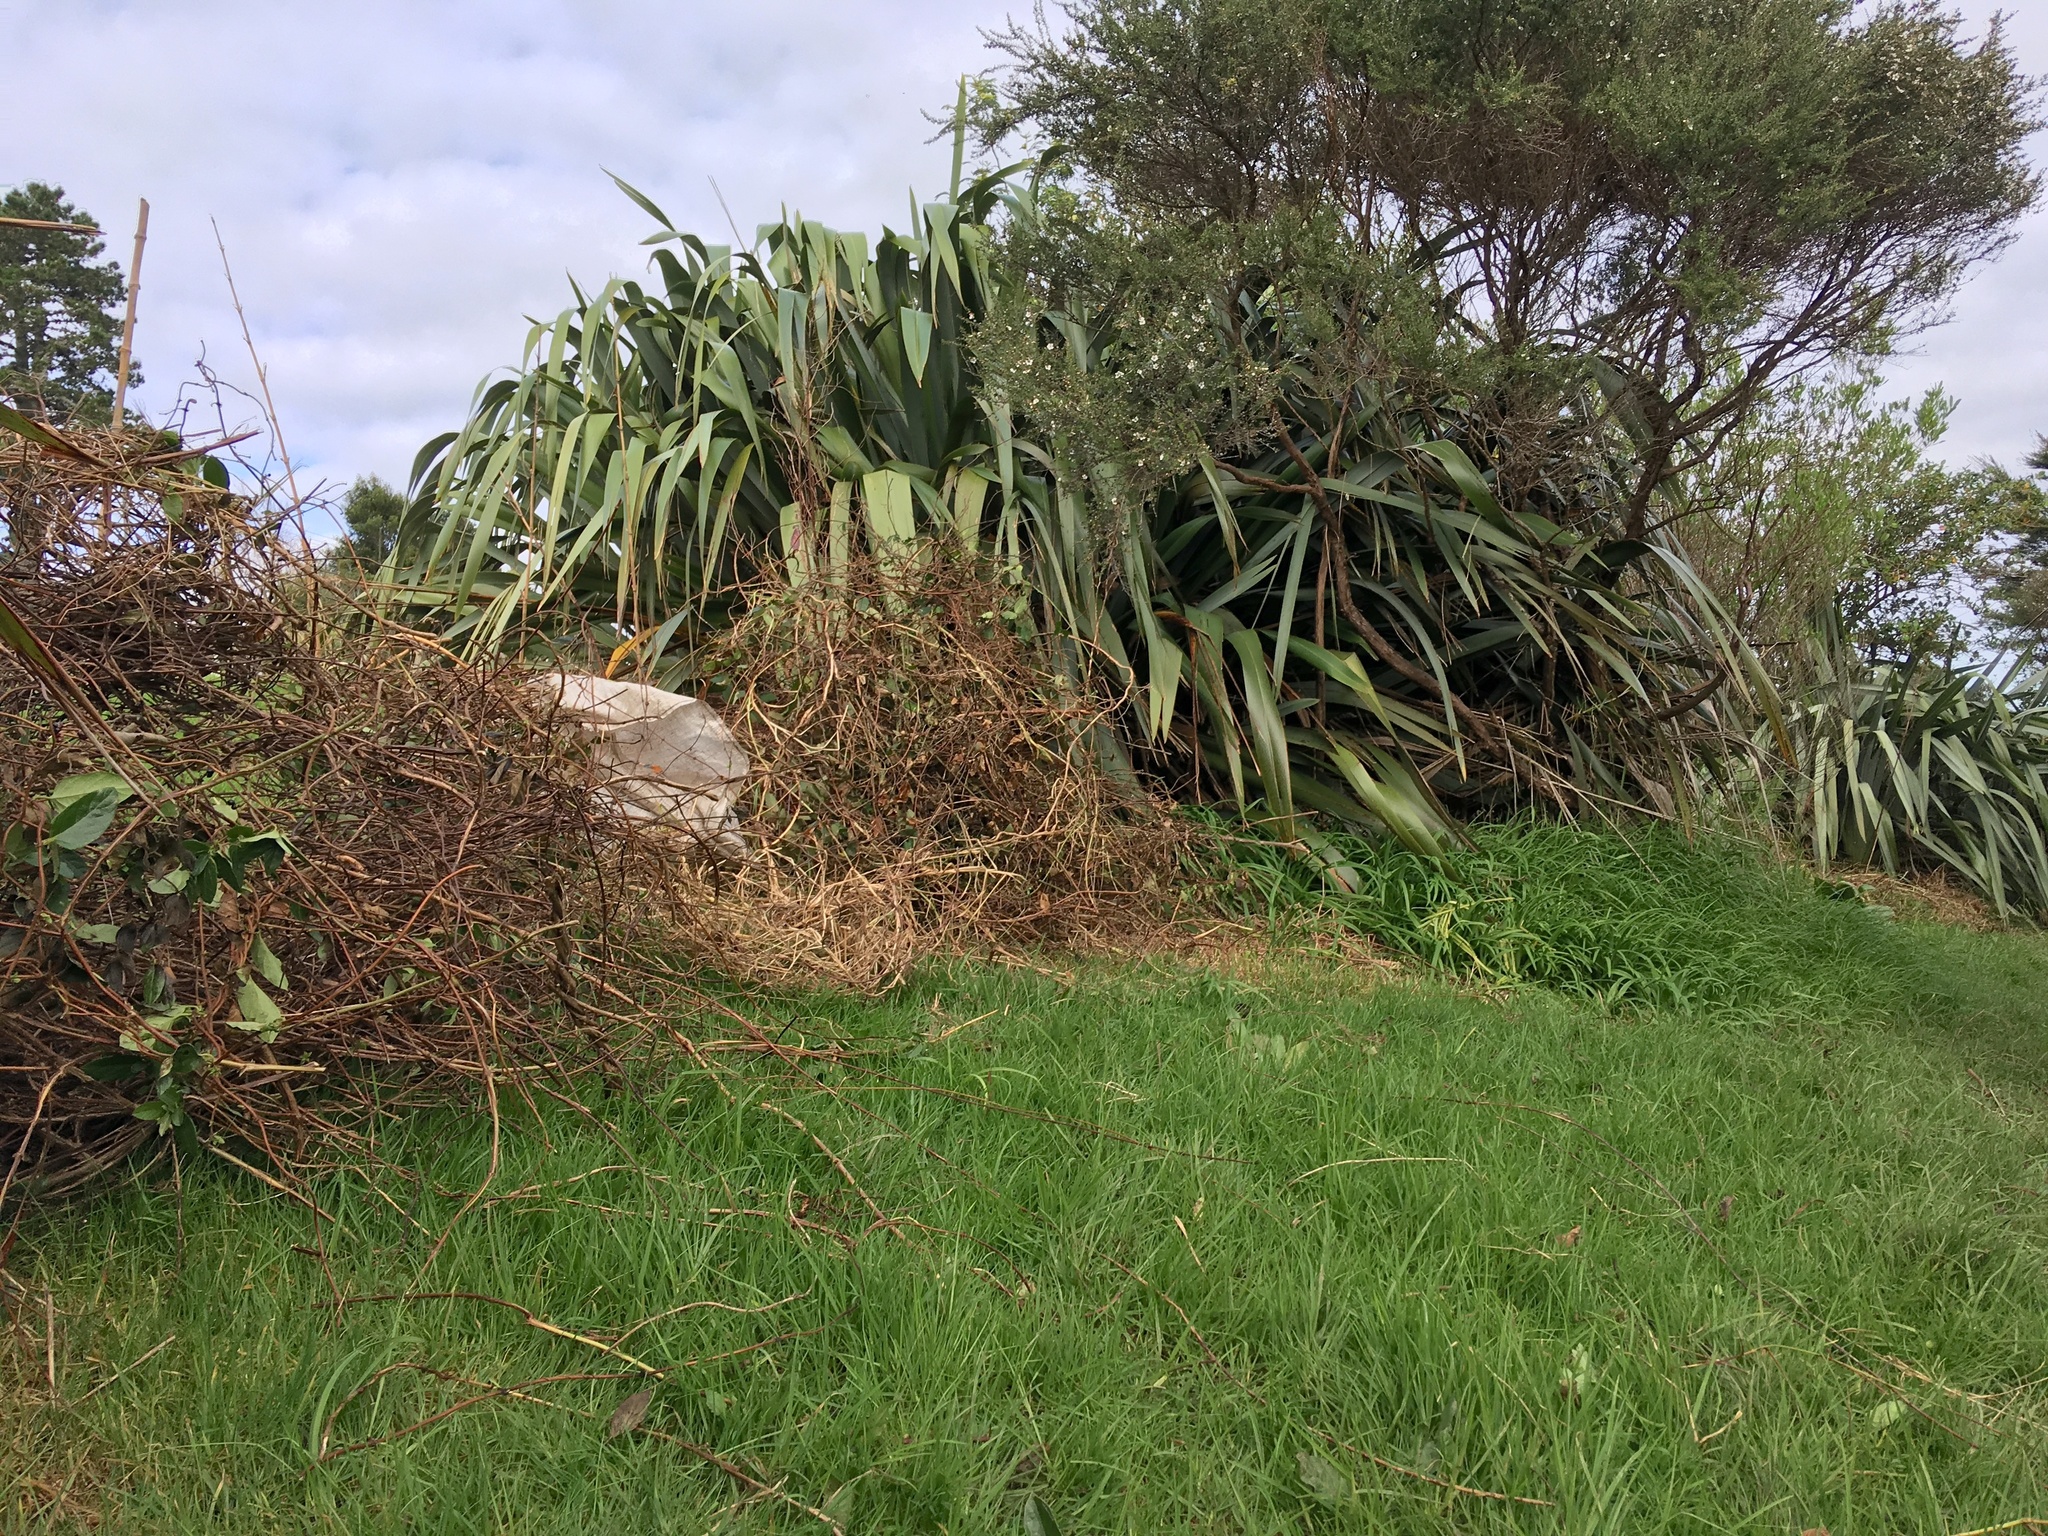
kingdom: Plantae
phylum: Tracheophyta
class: Liliopsida
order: Poales
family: Poaceae
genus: Cenchrus
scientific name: Cenchrus clandestinus
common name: Kikuyugrass
